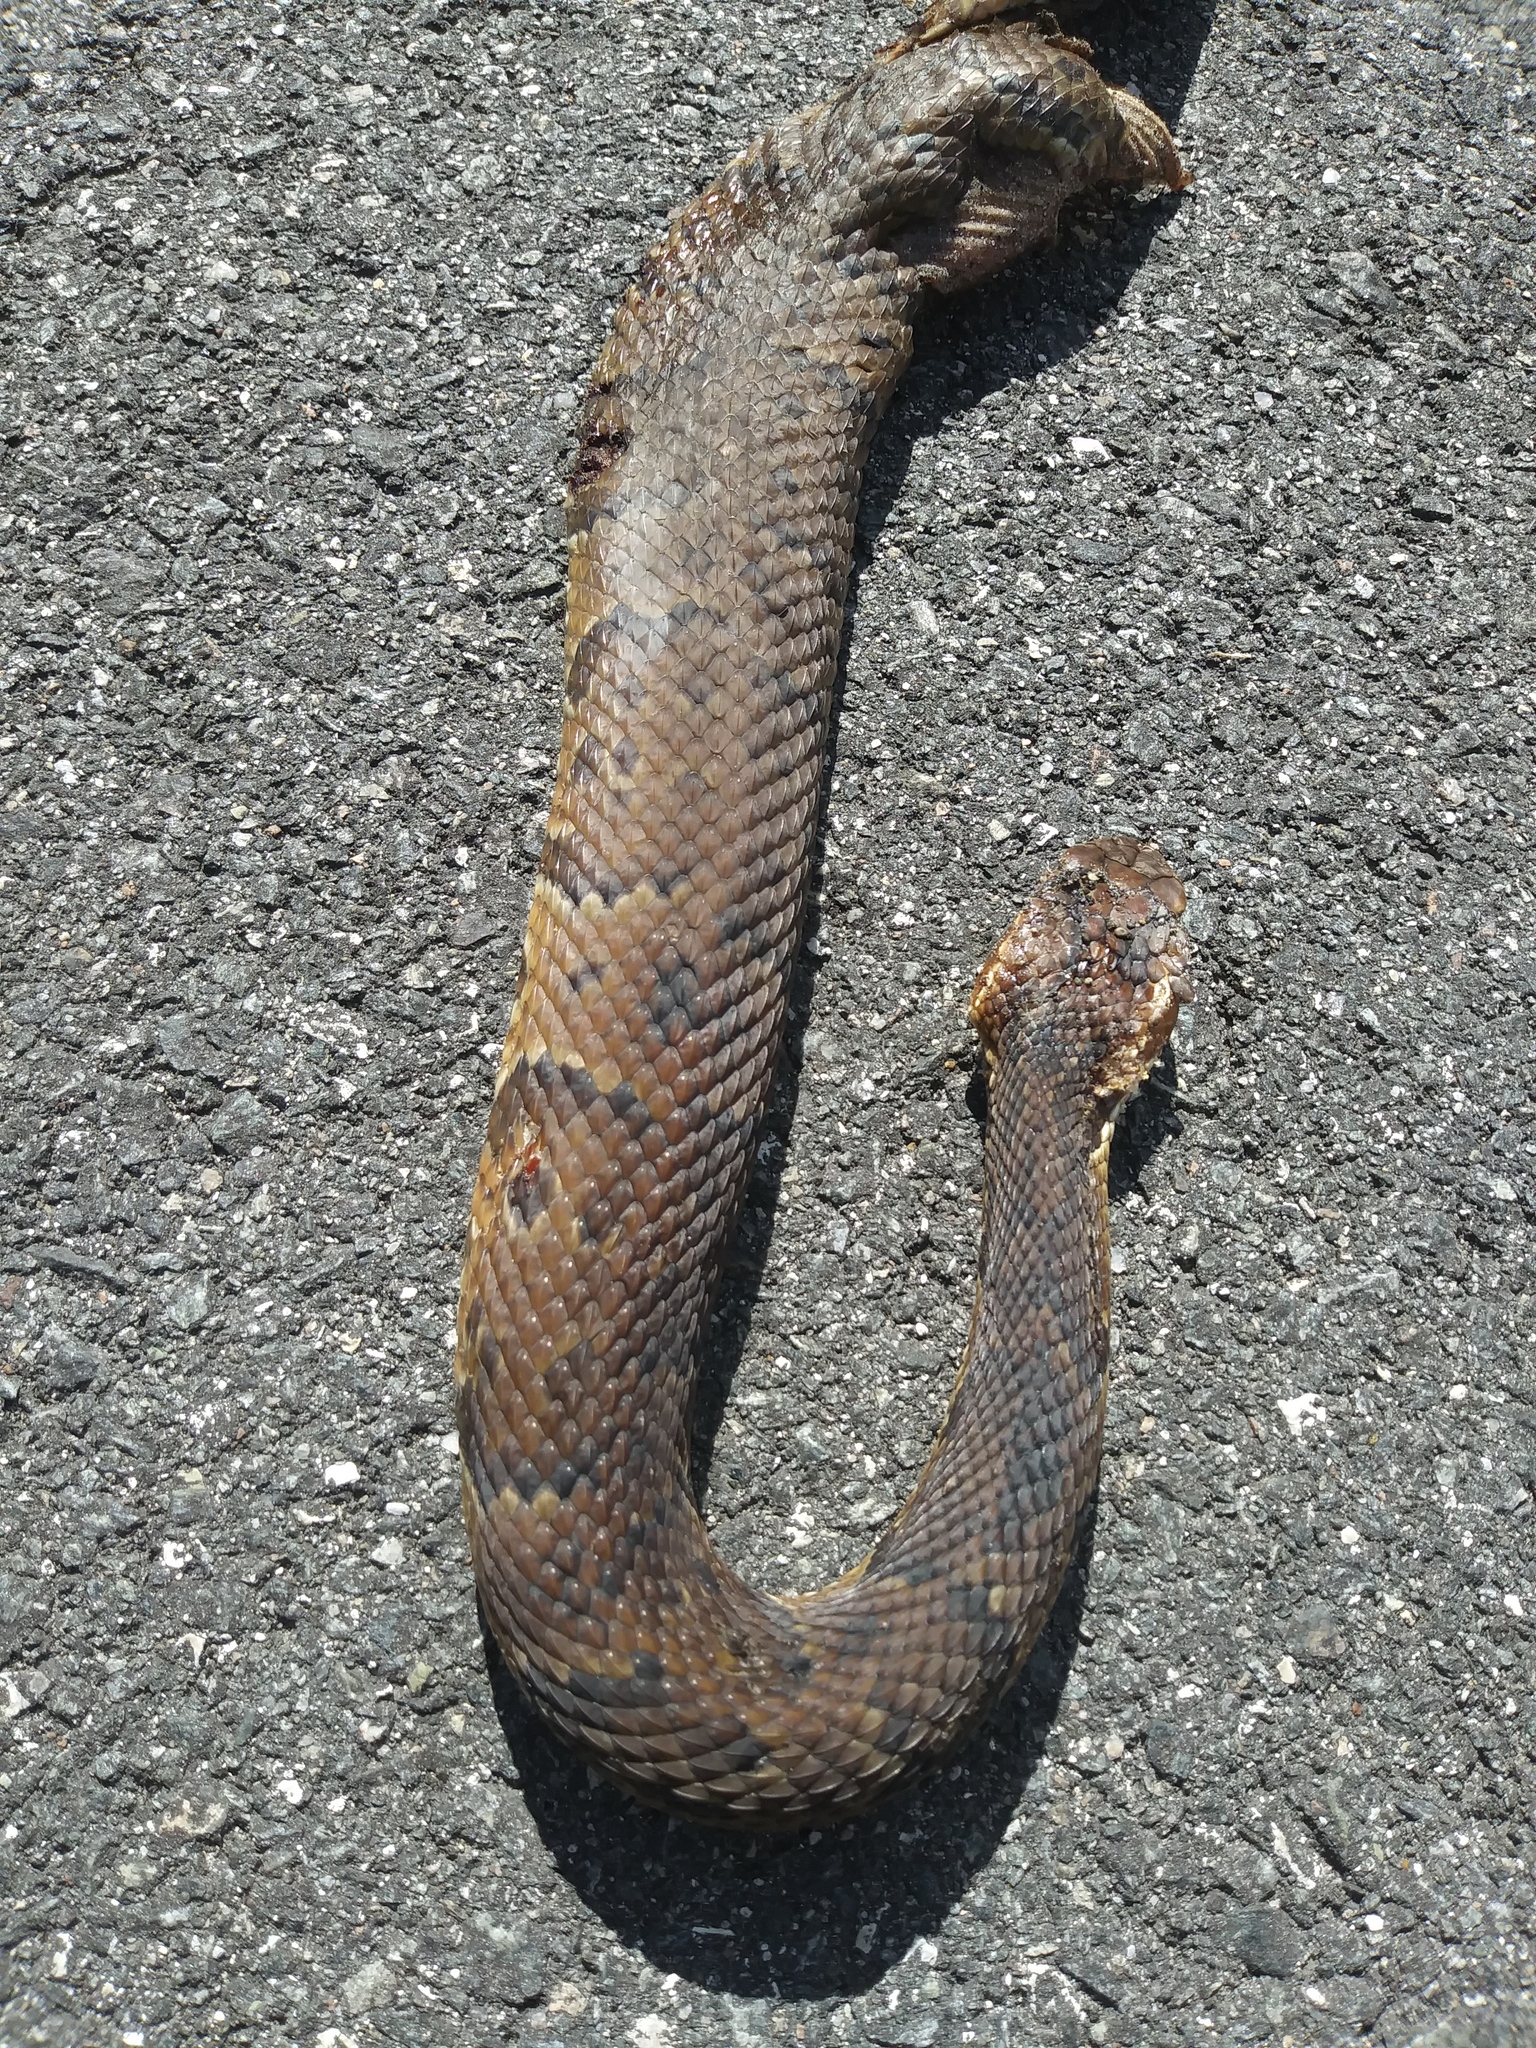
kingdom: Animalia
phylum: Chordata
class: Squamata
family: Viperidae
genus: Agkistrodon
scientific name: Agkistrodon conanti
